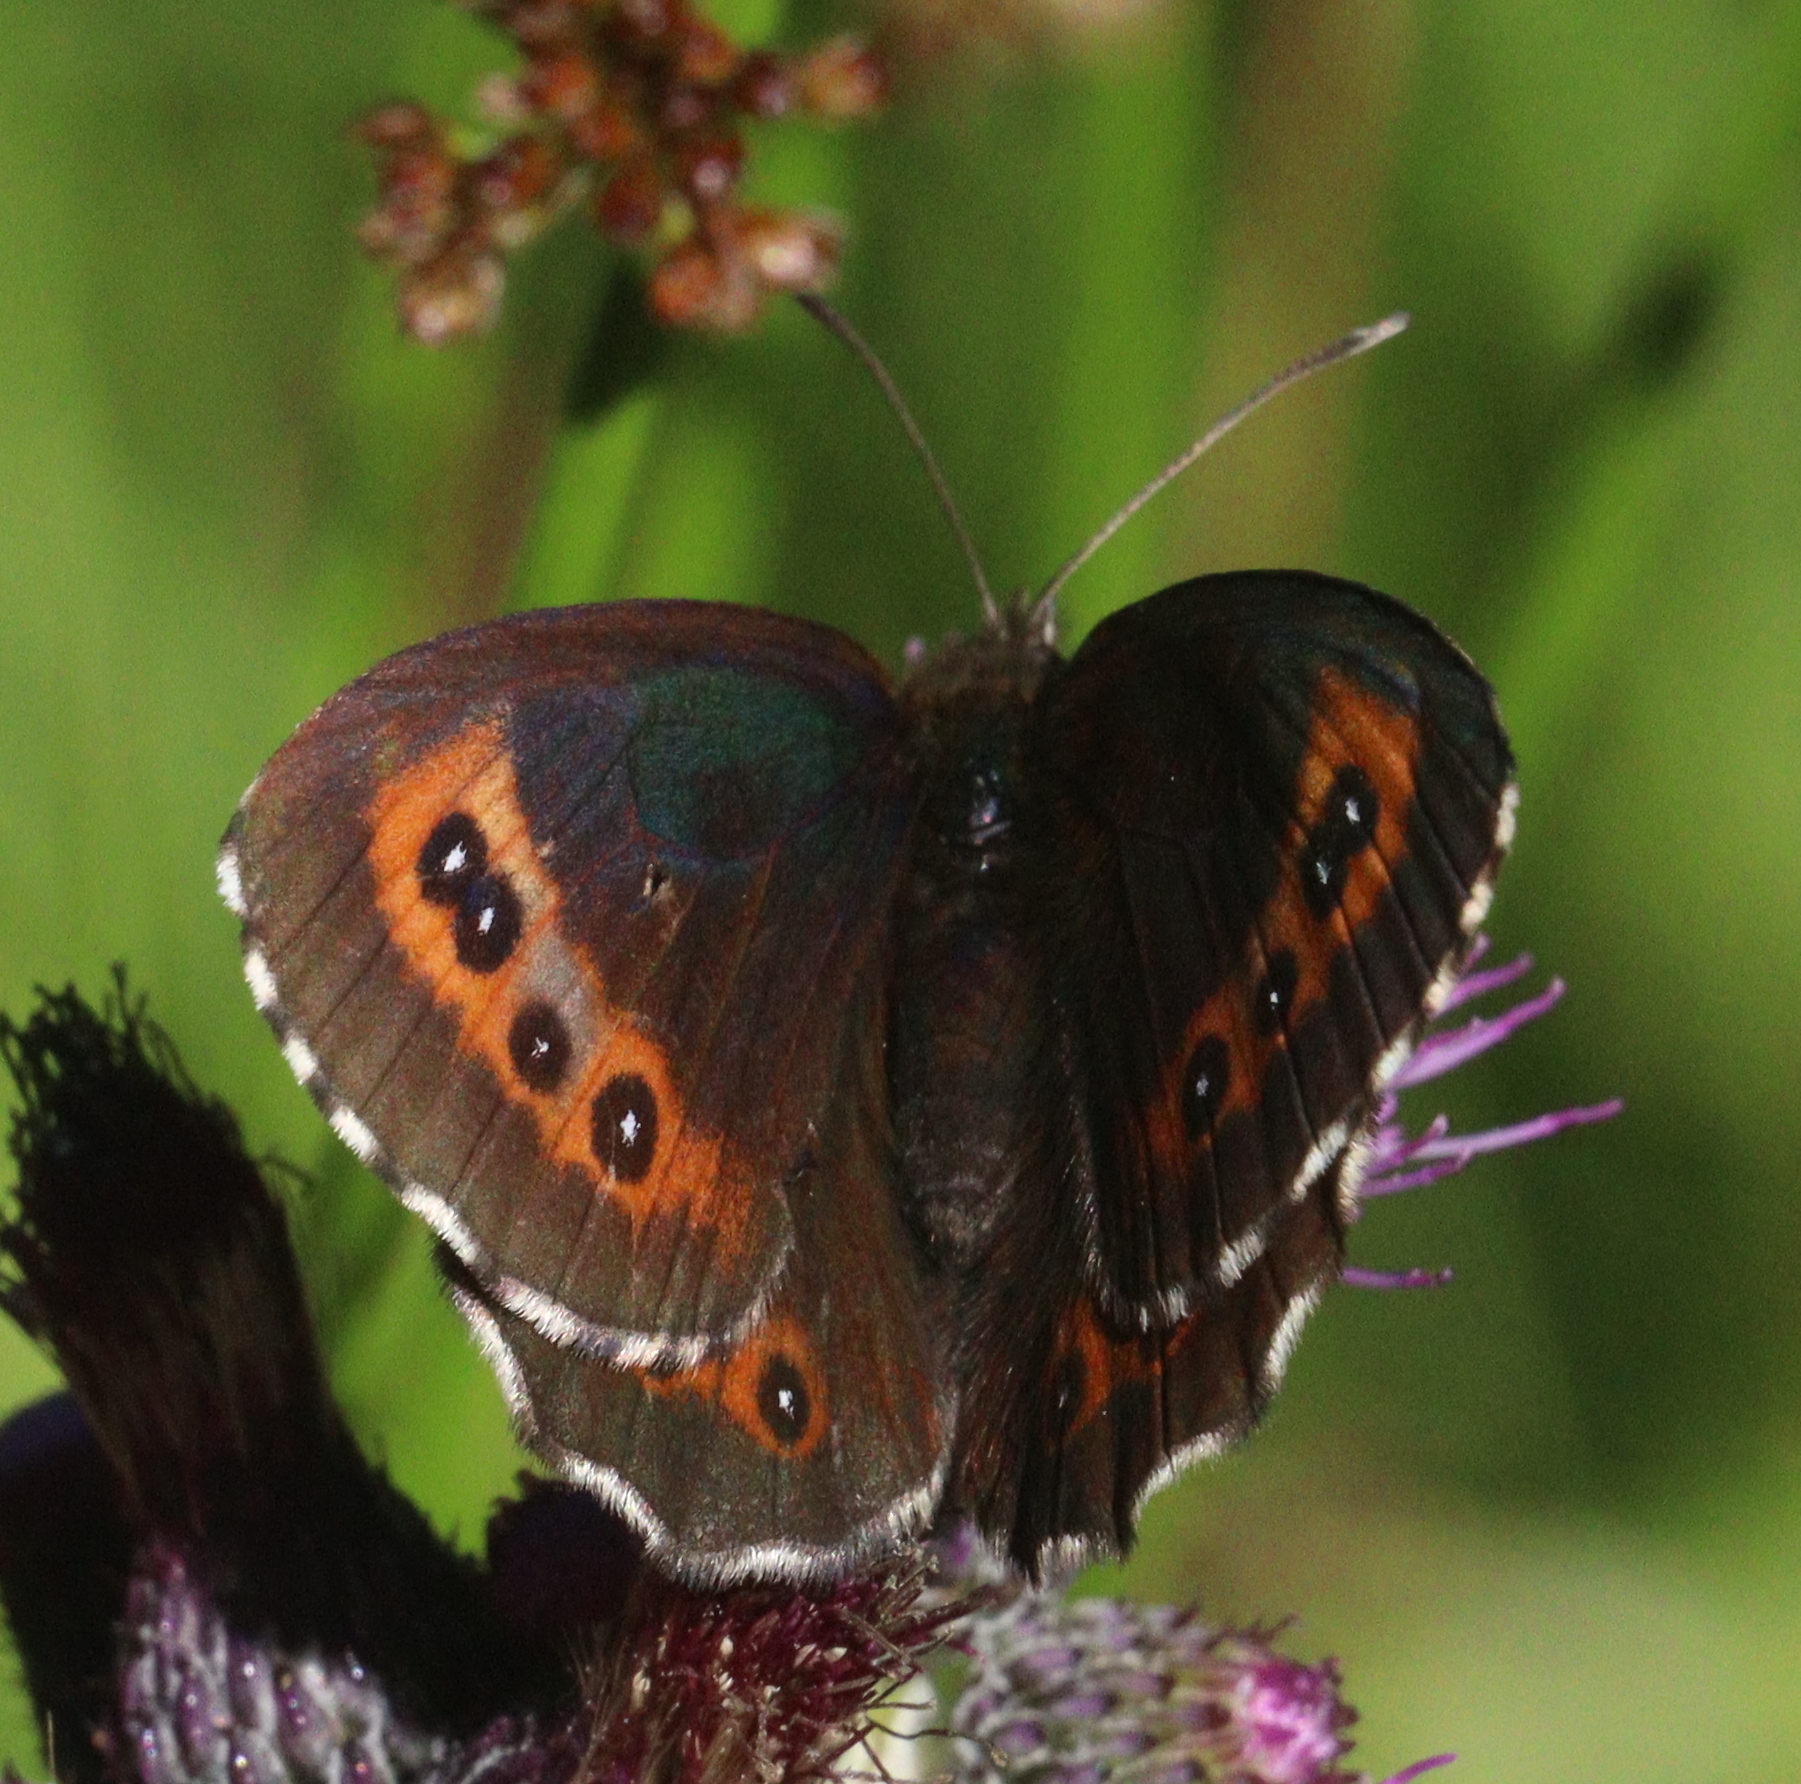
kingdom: Animalia
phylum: Arthropoda
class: Insecta
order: Lepidoptera
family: Nymphalidae
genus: Erebia
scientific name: Erebia ligea
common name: Arran brown
